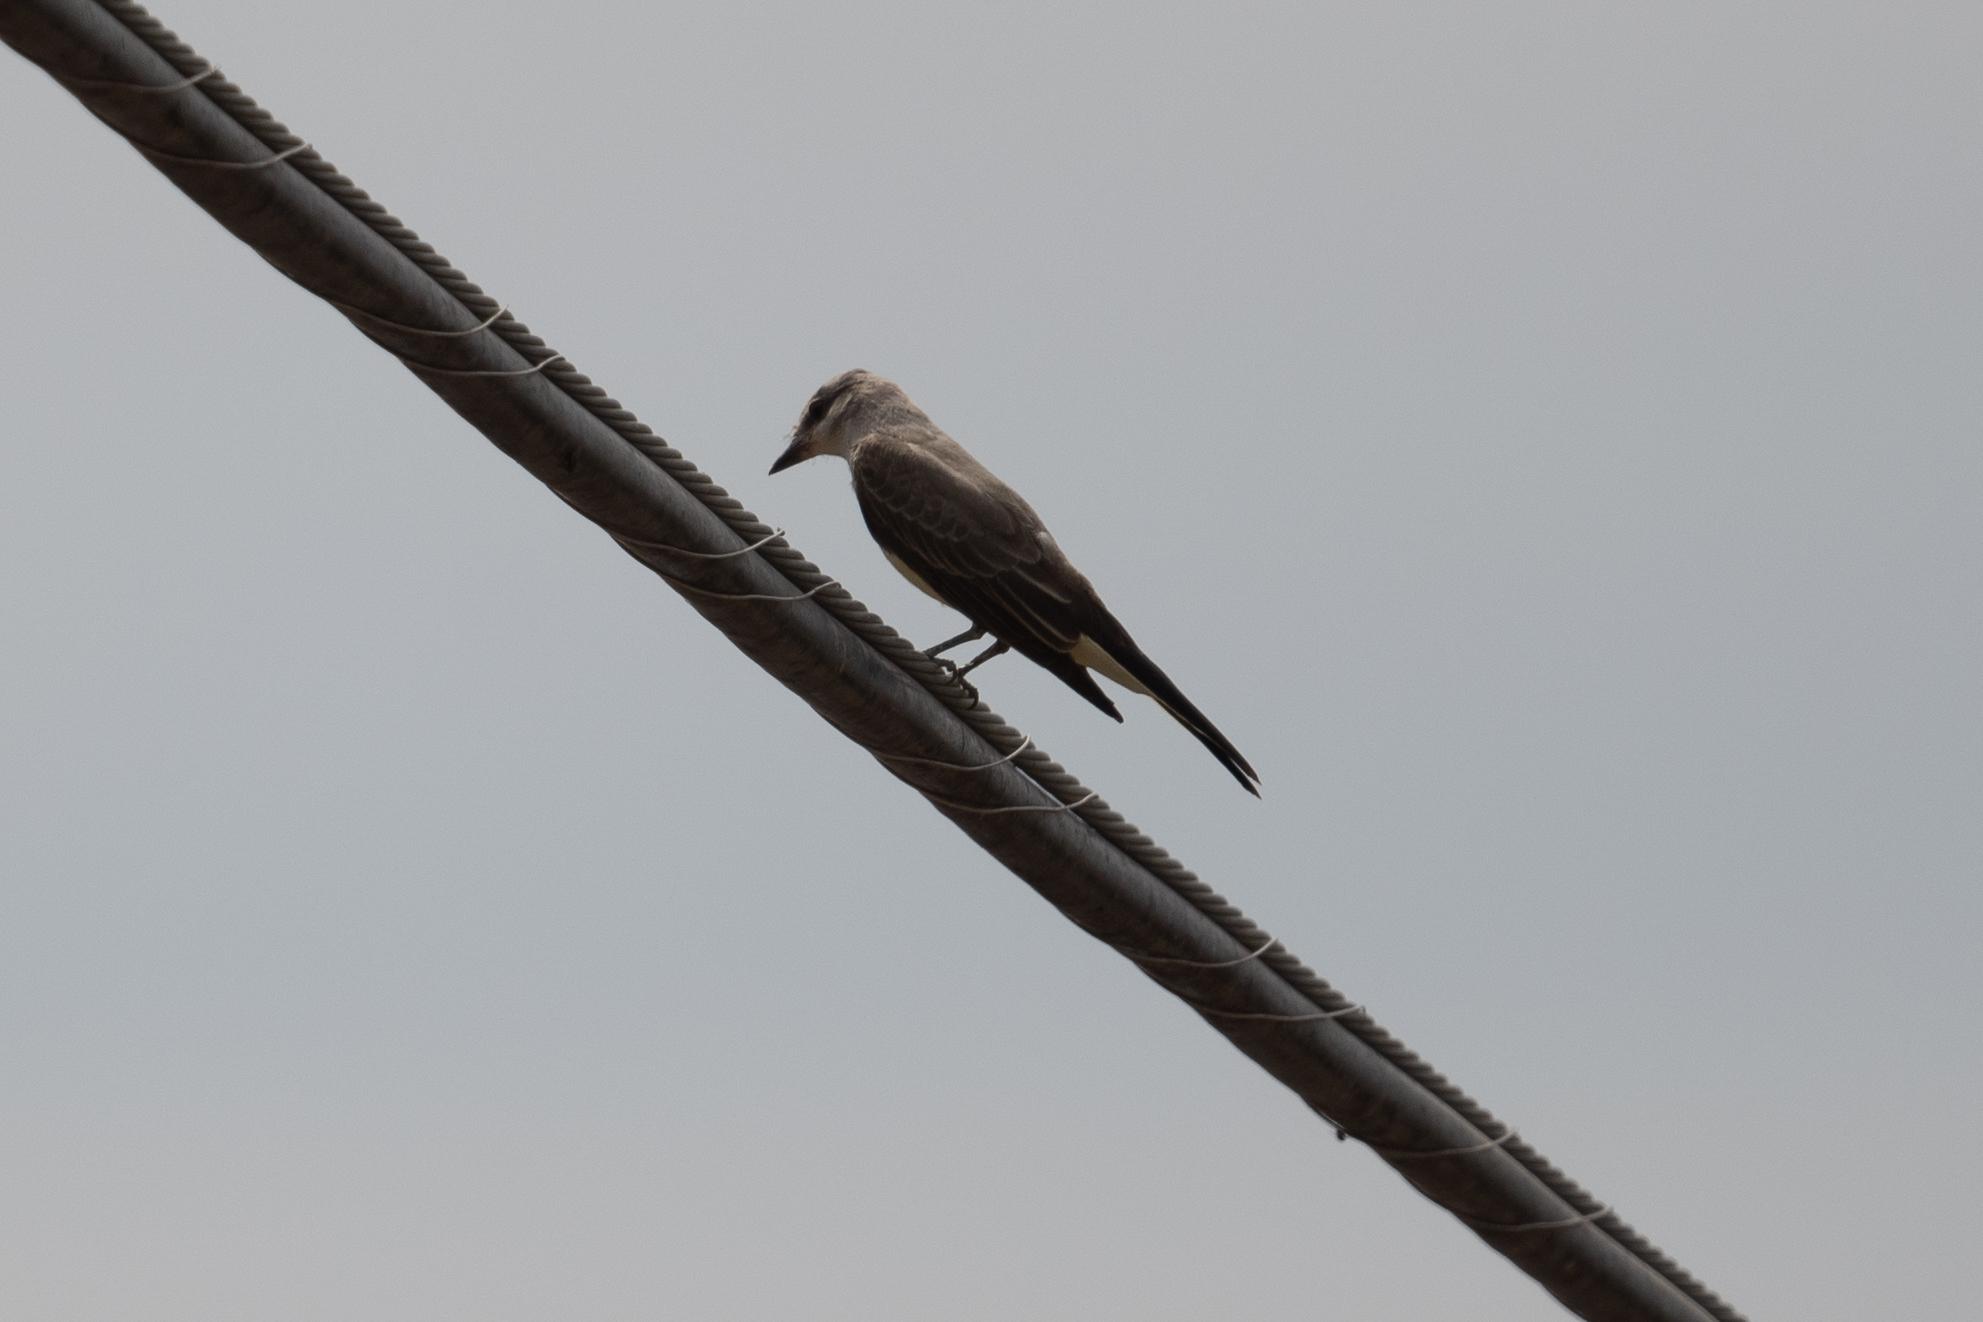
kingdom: Animalia
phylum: Chordata
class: Aves
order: Passeriformes
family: Tyrannidae
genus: Tyrannus
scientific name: Tyrannus verticalis
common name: Western kingbird
